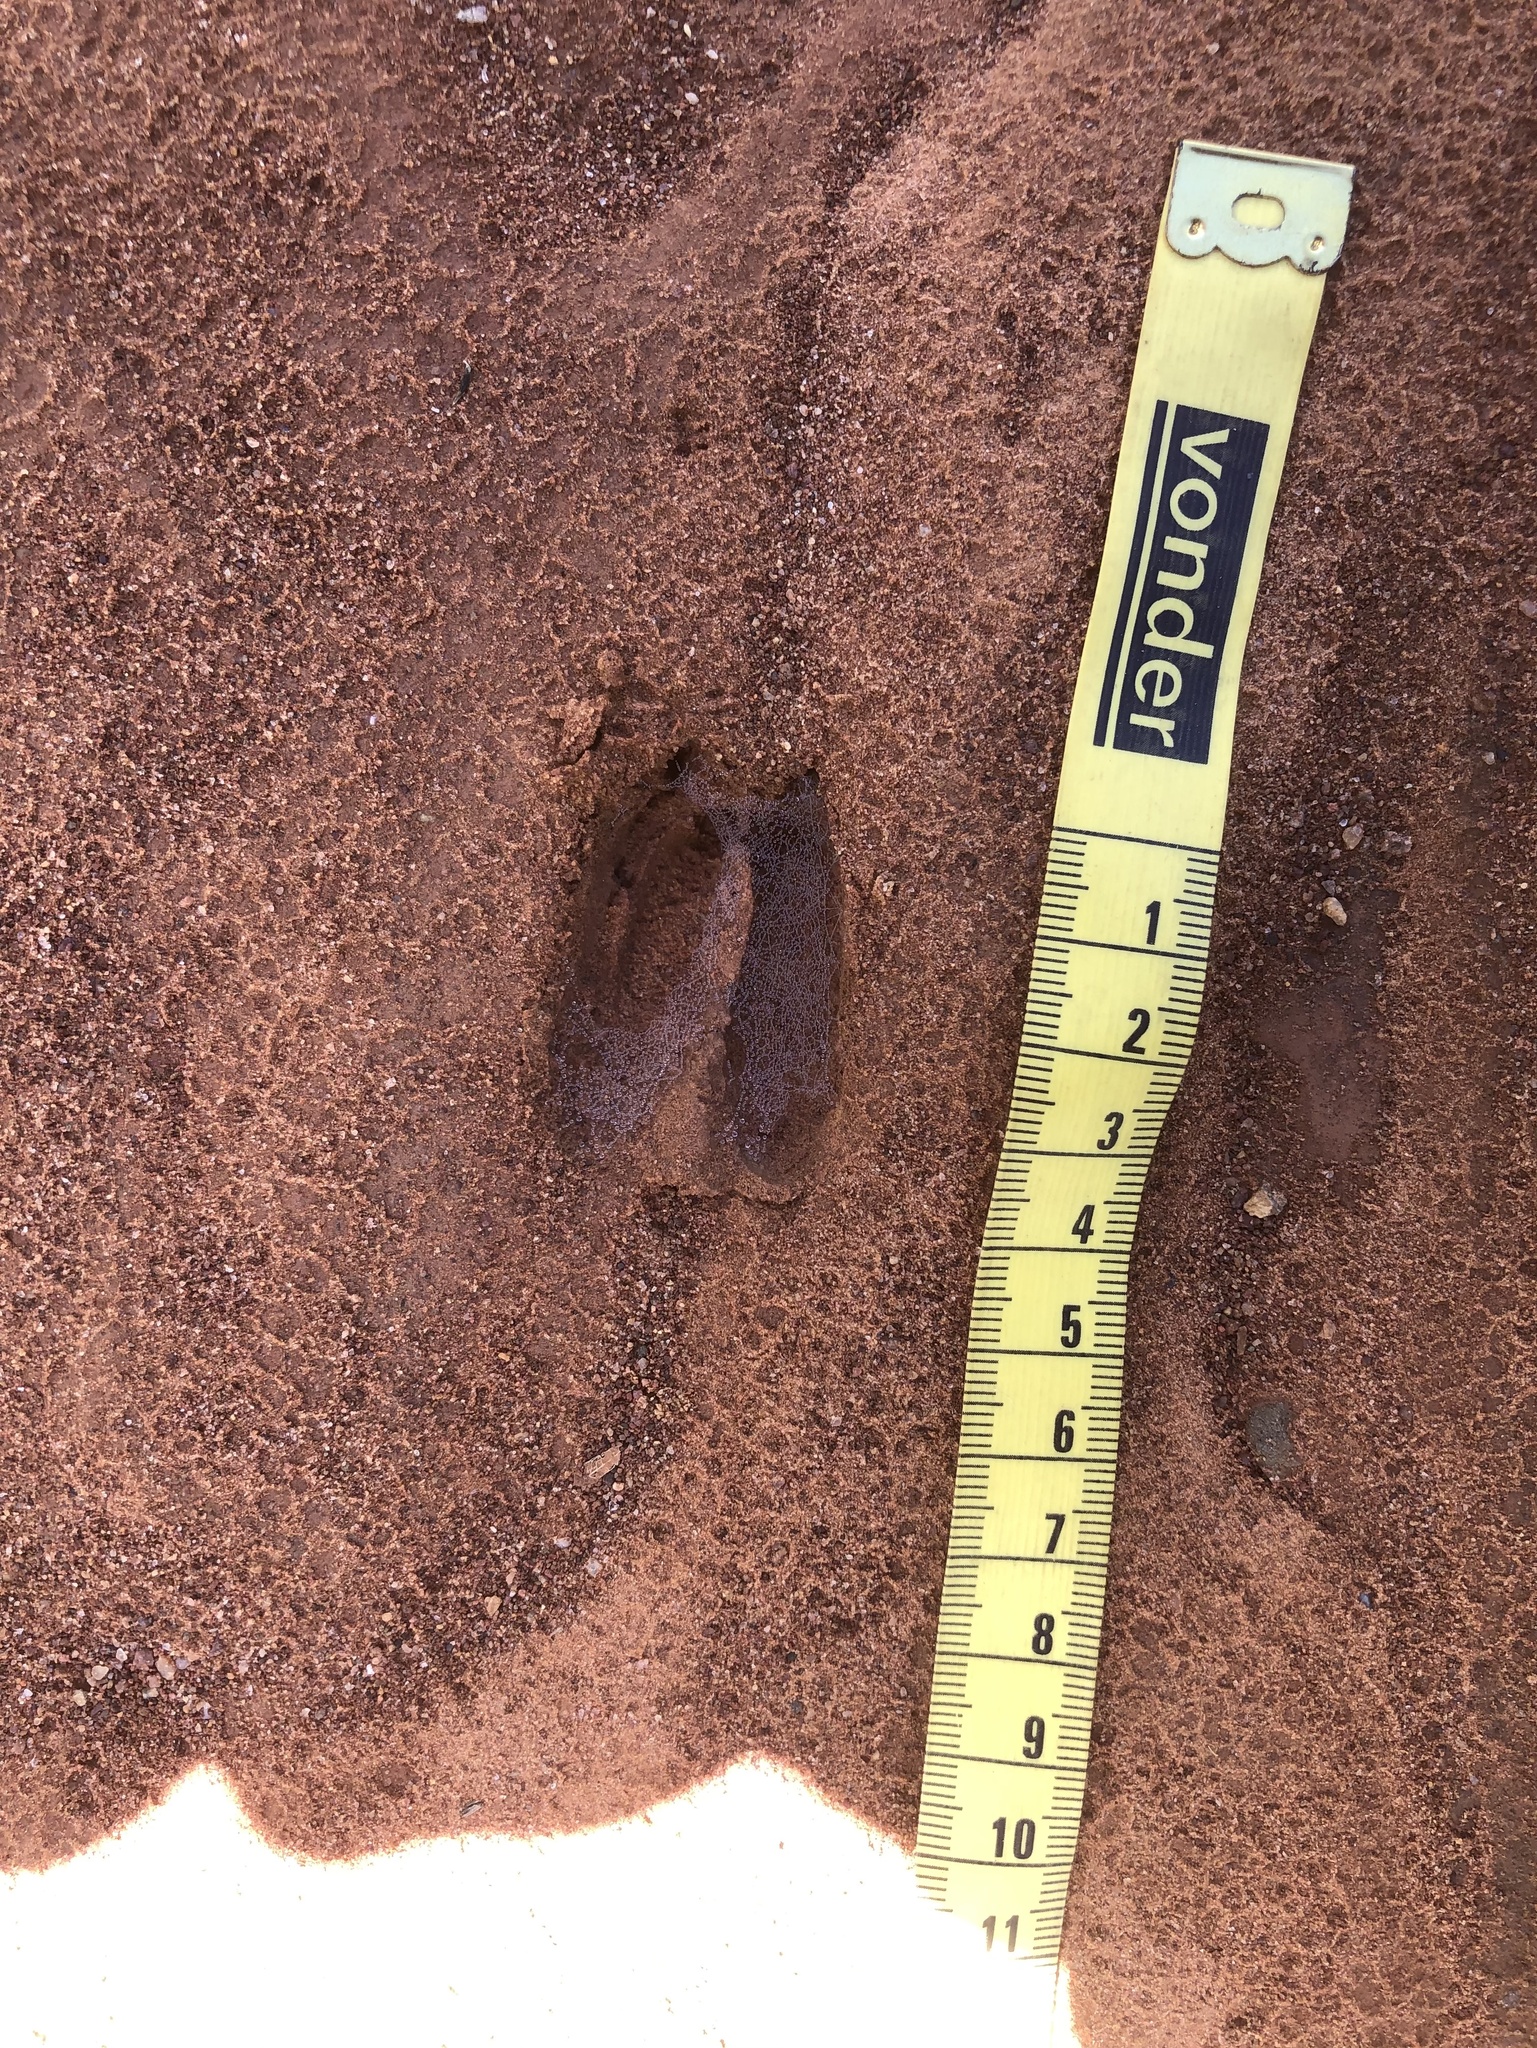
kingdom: Animalia
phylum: Chordata
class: Mammalia
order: Artiodactyla
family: Cervidae
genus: Mazama
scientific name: Mazama gouazoubira
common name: Gray brocket
